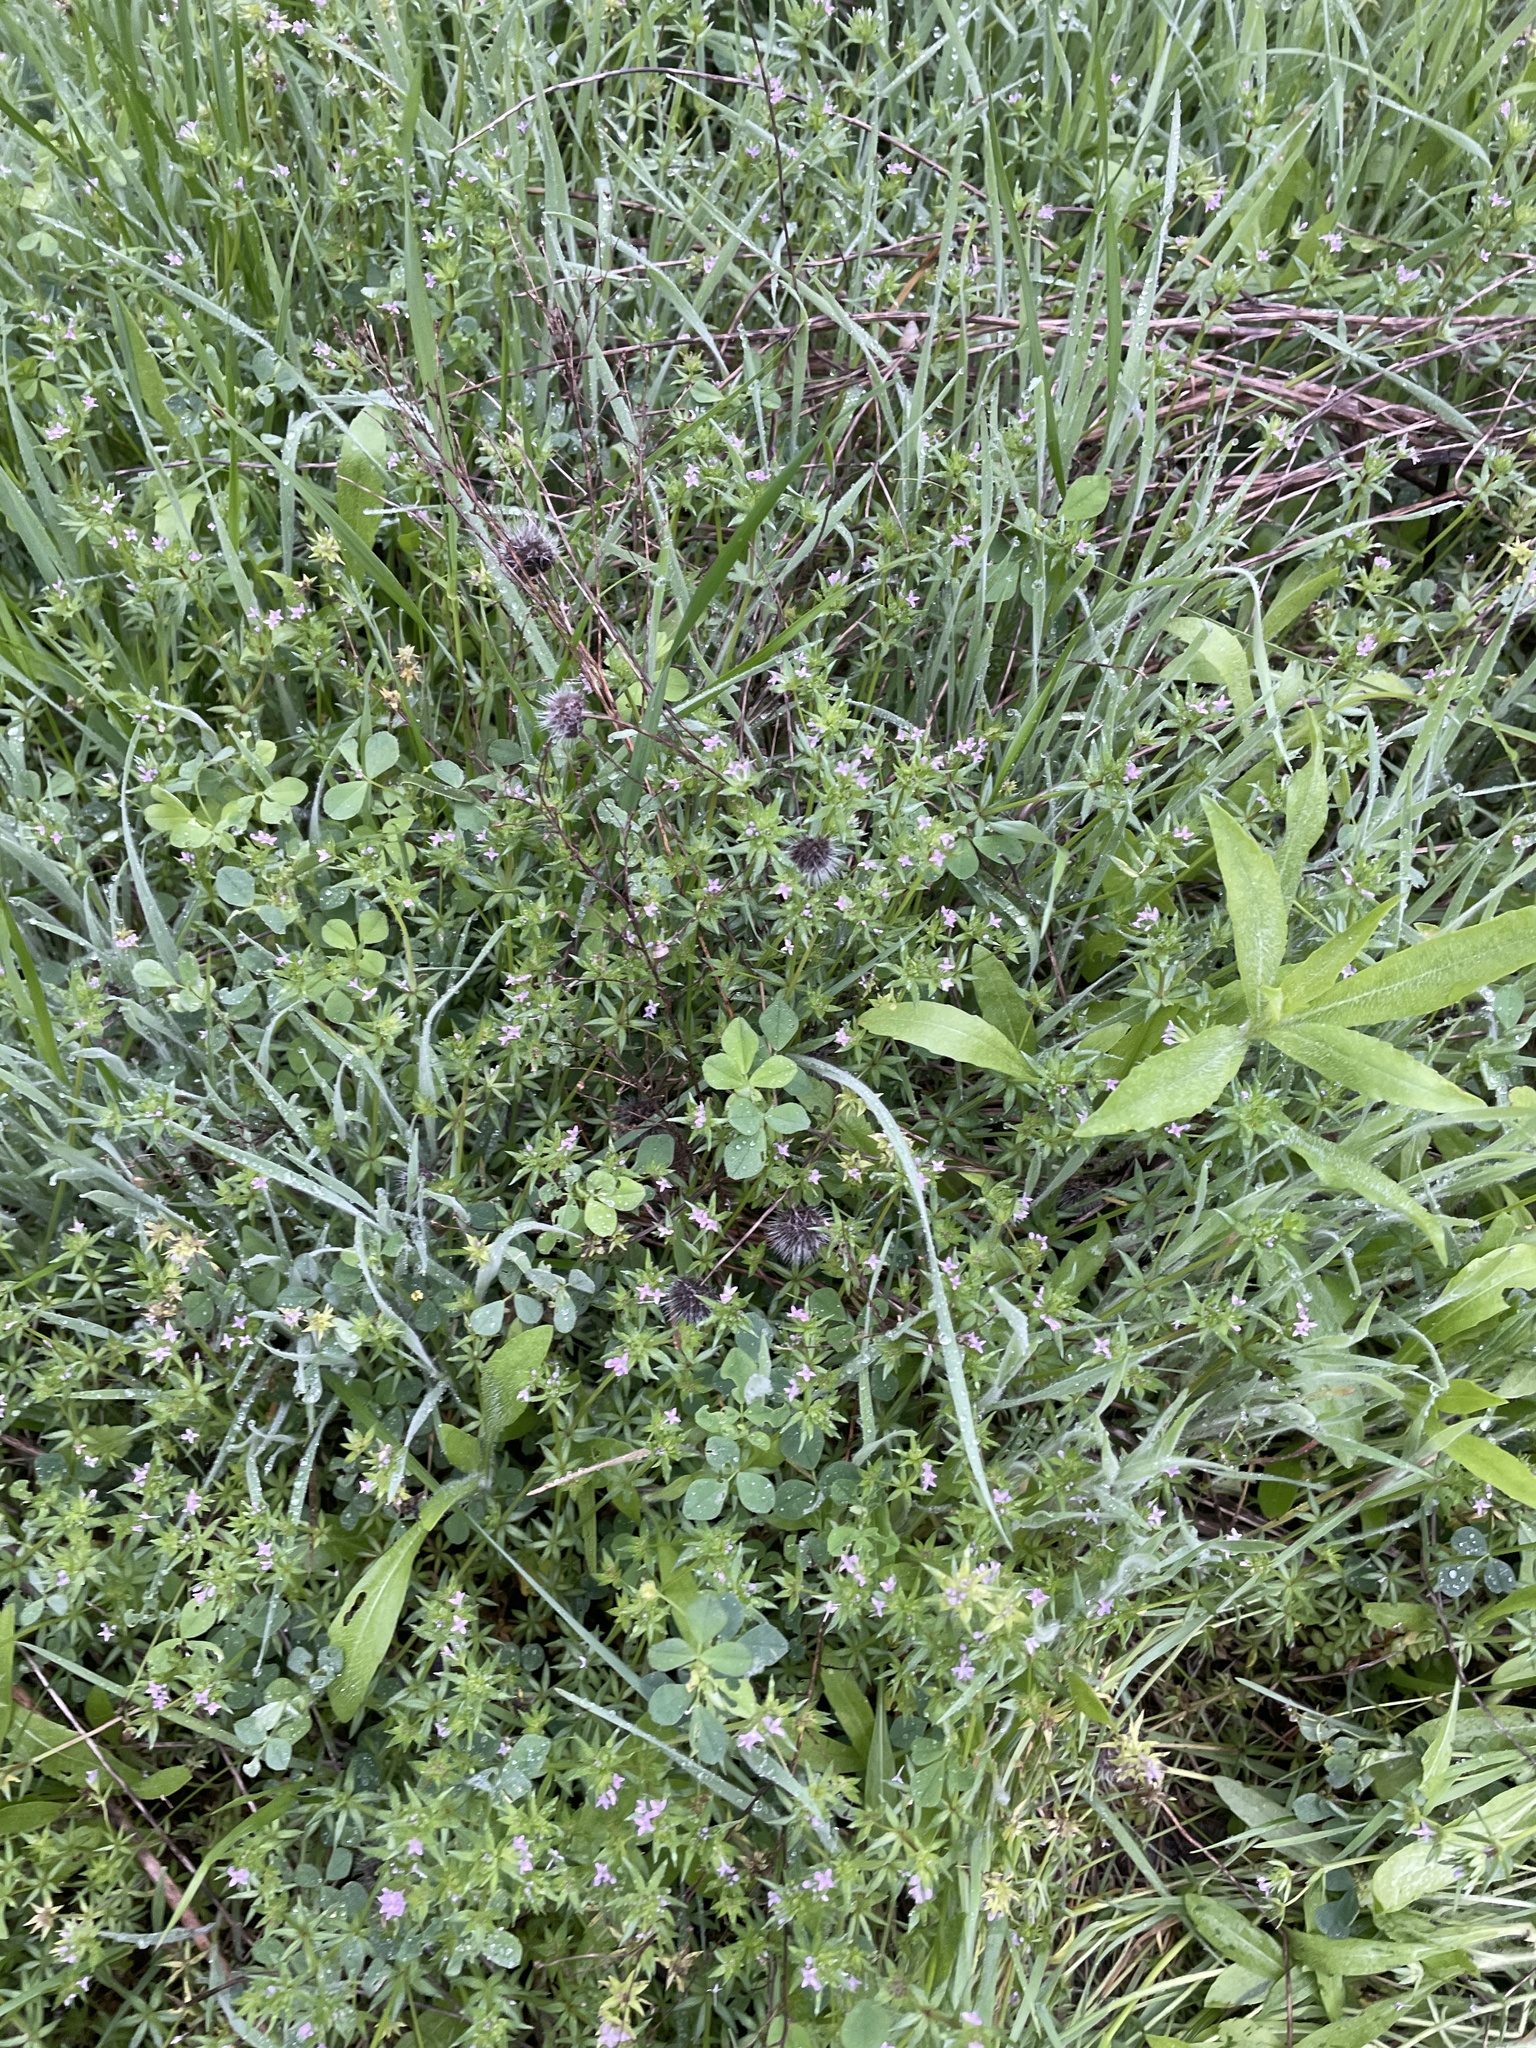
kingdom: Plantae
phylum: Tracheophyta
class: Magnoliopsida
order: Gentianales
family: Rubiaceae
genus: Sherardia
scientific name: Sherardia arvensis
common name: Field madder
